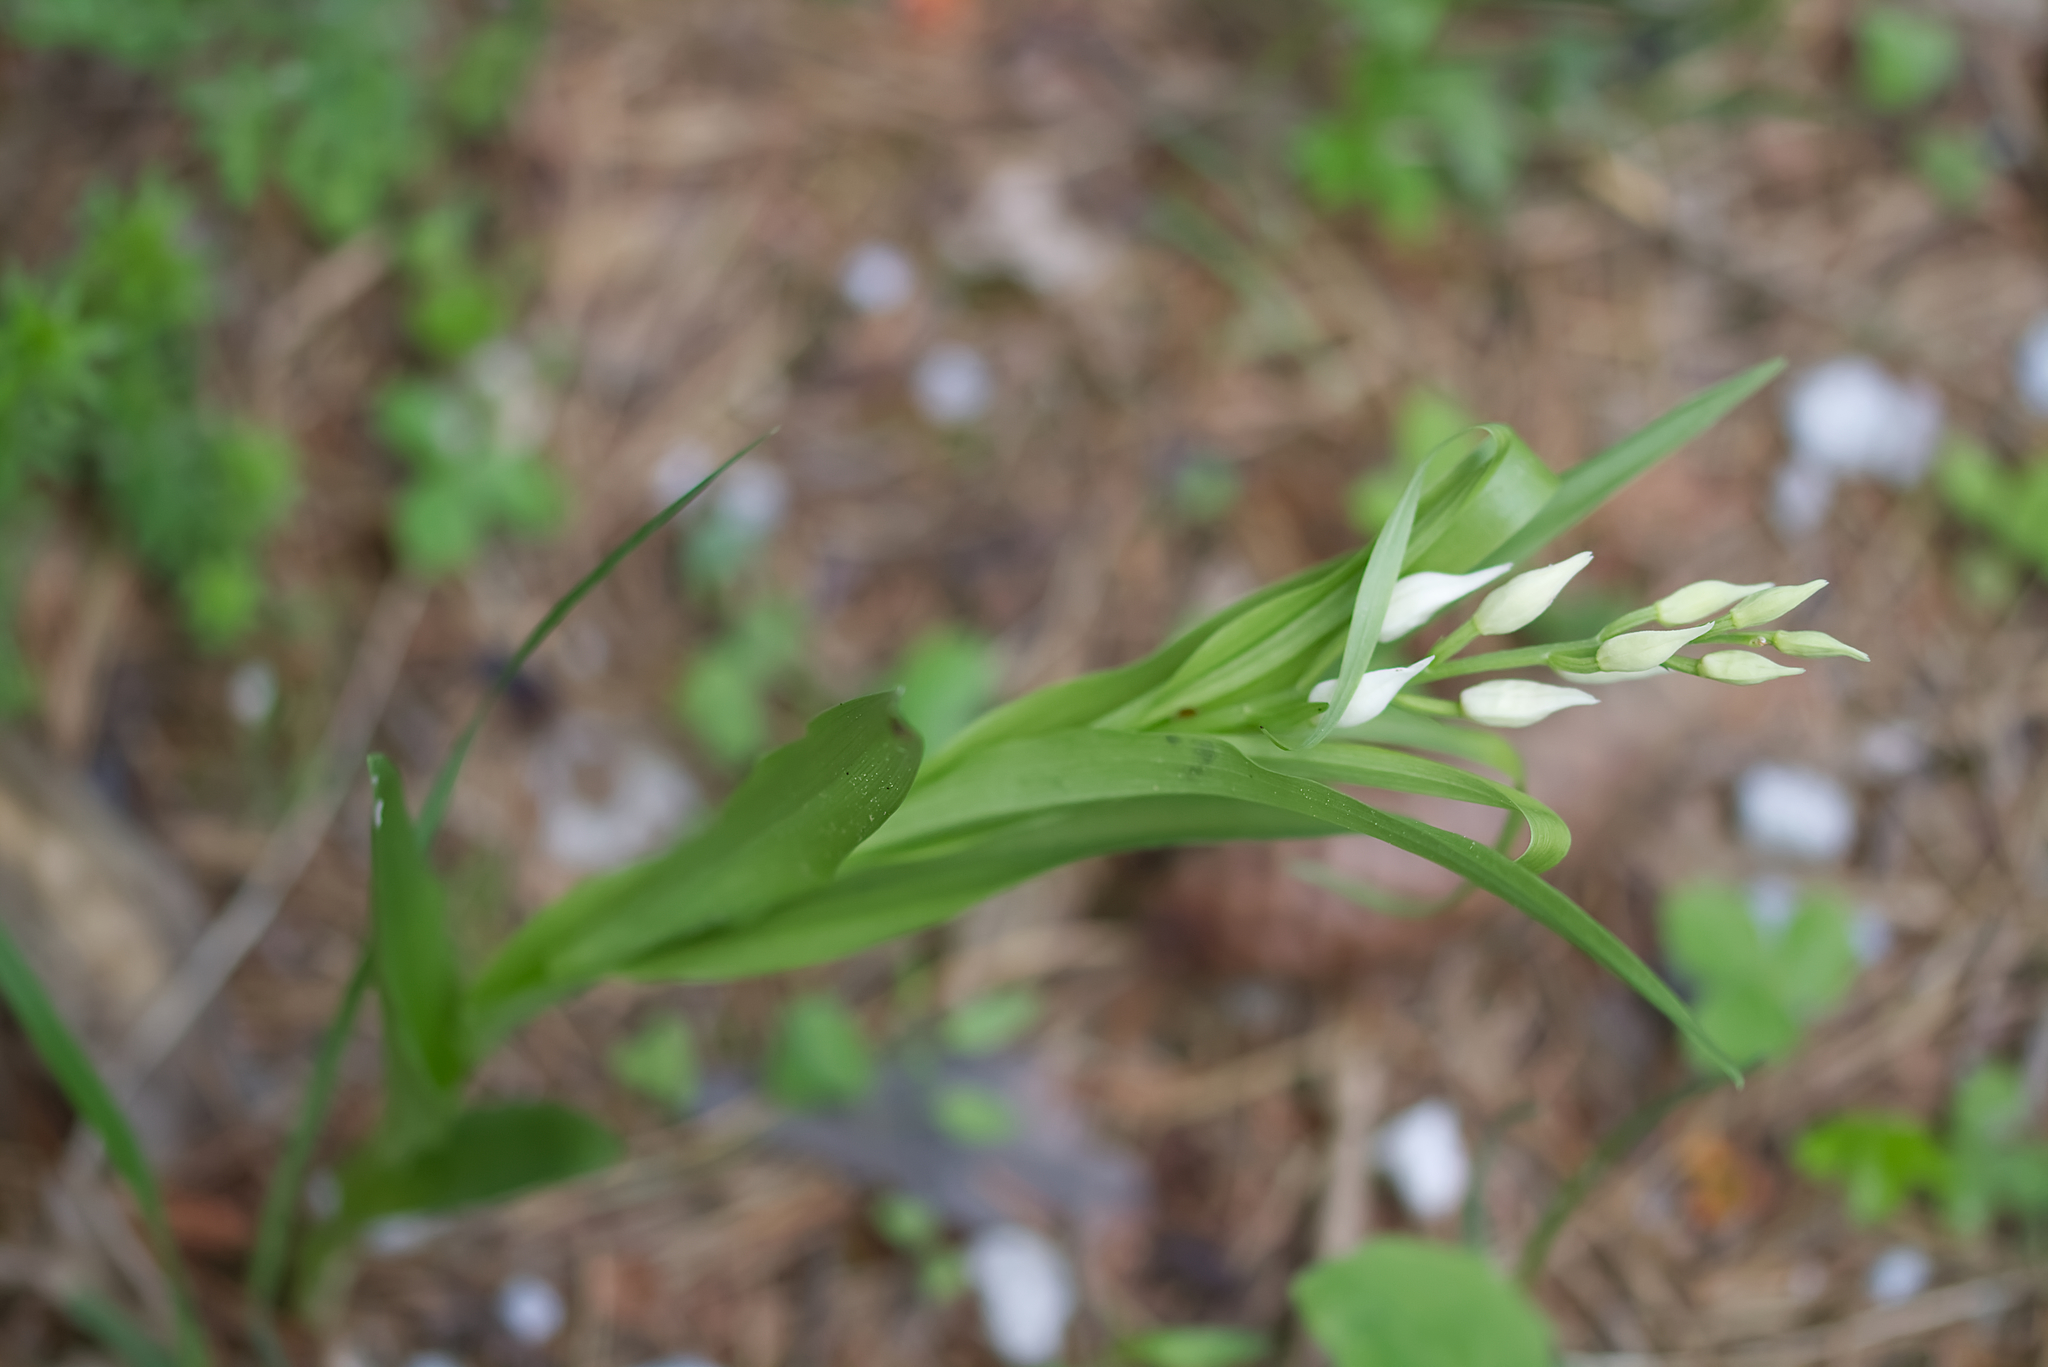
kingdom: Plantae
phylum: Tracheophyta
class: Liliopsida
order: Asparagales
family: Orchidaceae
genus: Cephalanthera
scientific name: Cephalanthera longifolia
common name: Narrow-leaved helleborine
